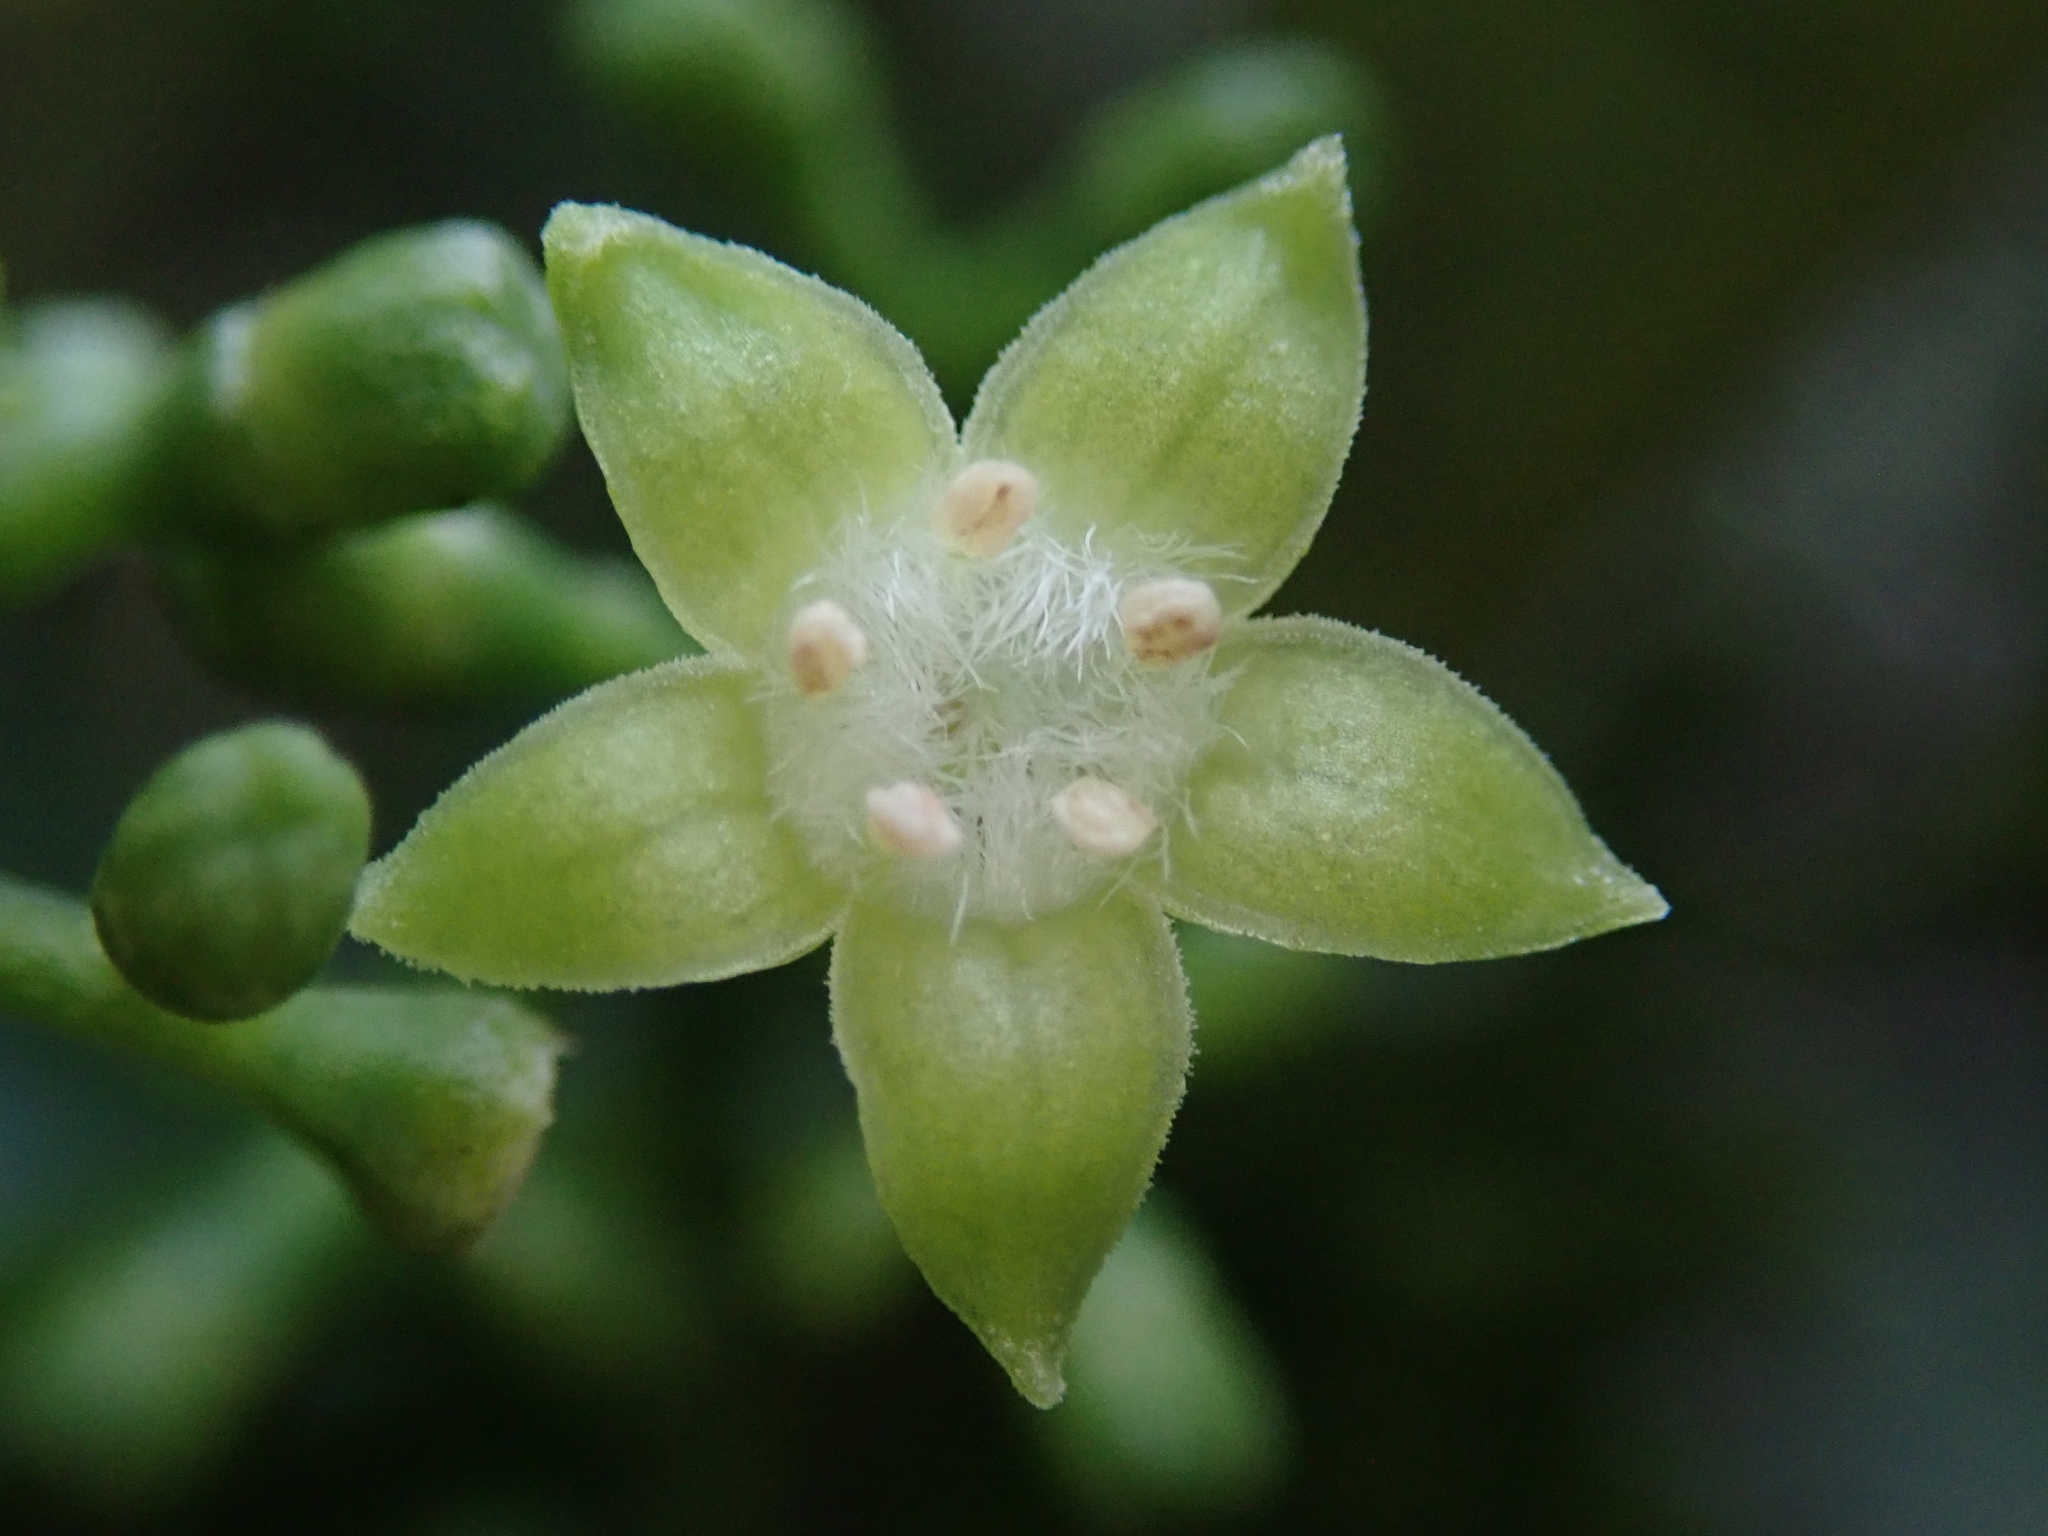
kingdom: Plantae
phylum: Tracheophyta
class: Magnoliopsida
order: Gentianales
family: Rubiaceae
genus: Psychotria
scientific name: Psychotria asiatica
